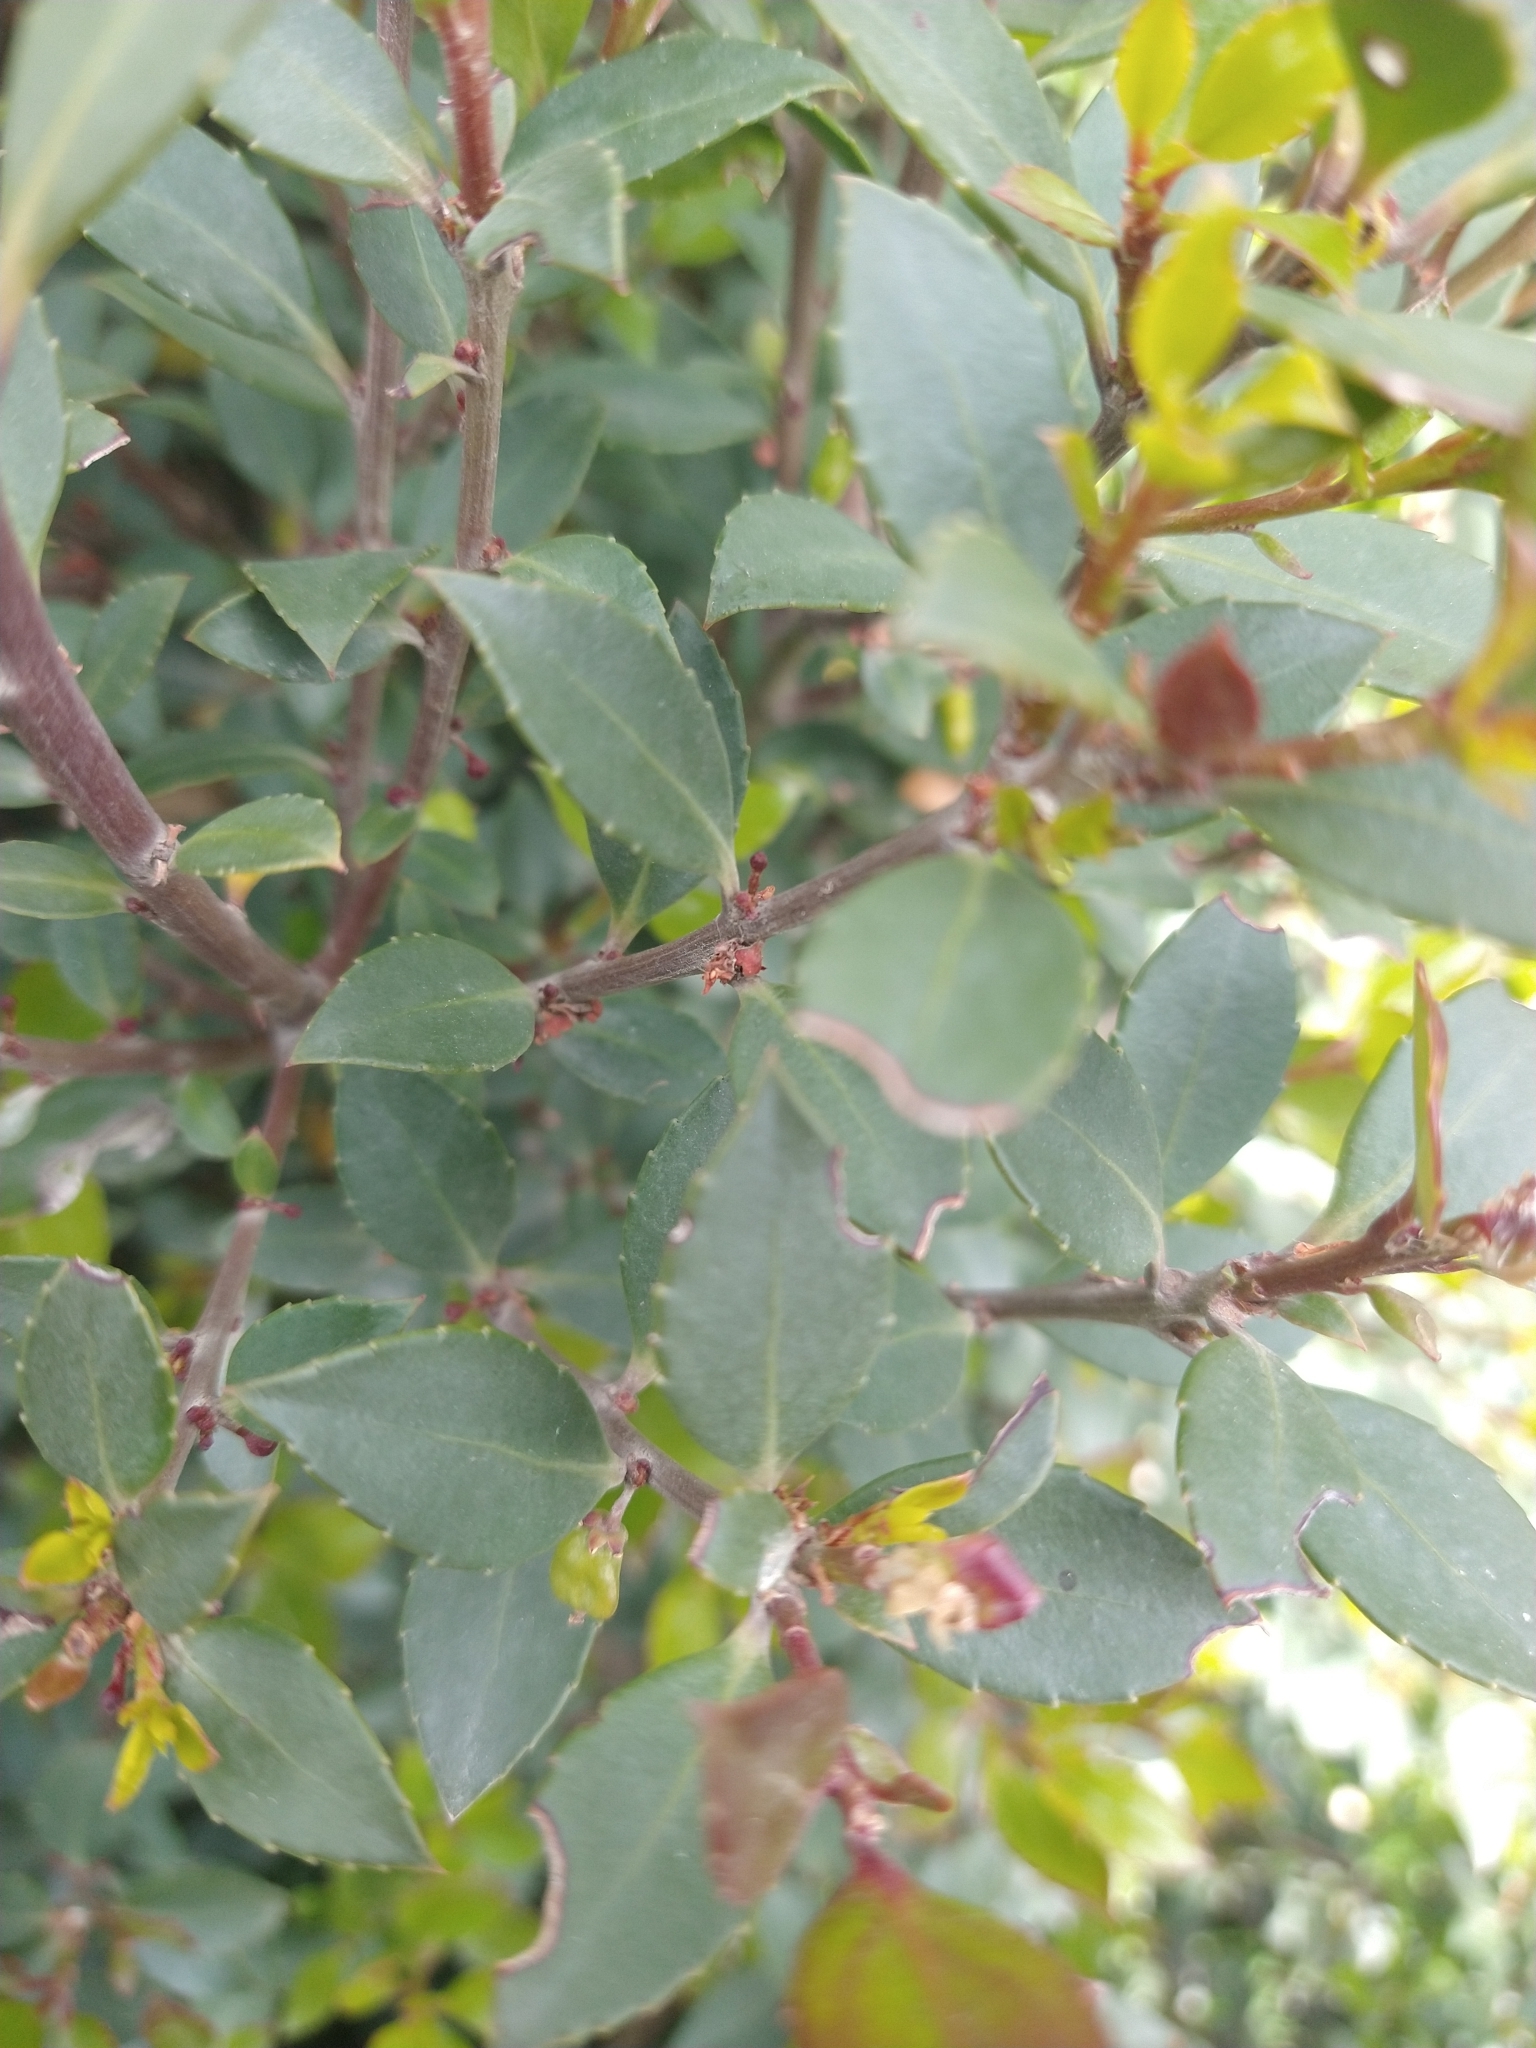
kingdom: Plantae
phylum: Tracheophyta
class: Magnoliopsida
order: Celastrales
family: Celastraceae
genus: Maytenus
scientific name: Maytenus magellanica
